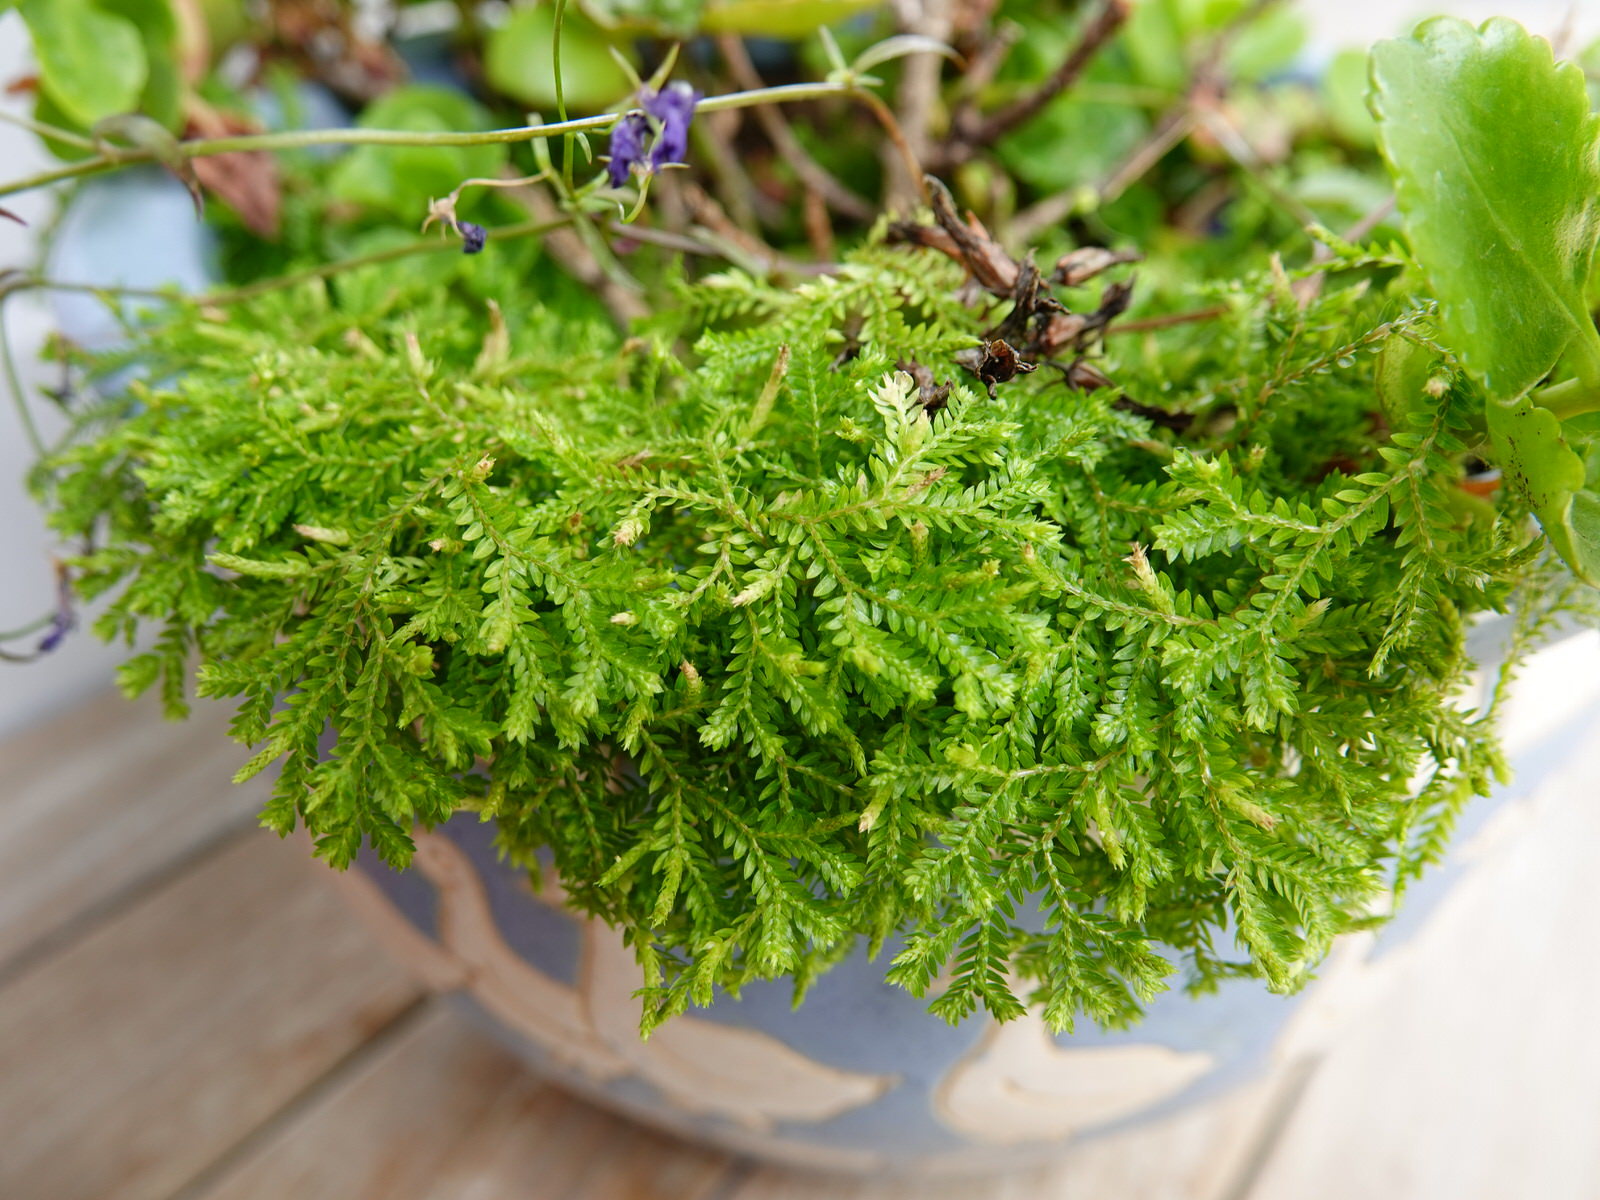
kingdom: Plantae
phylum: Tracheophyta
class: Lycopodiopsida
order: Selaginellales
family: Selaginellaceae
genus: Selaginella
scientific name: Selaginella kraussiana
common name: Krauss' spikemoss
